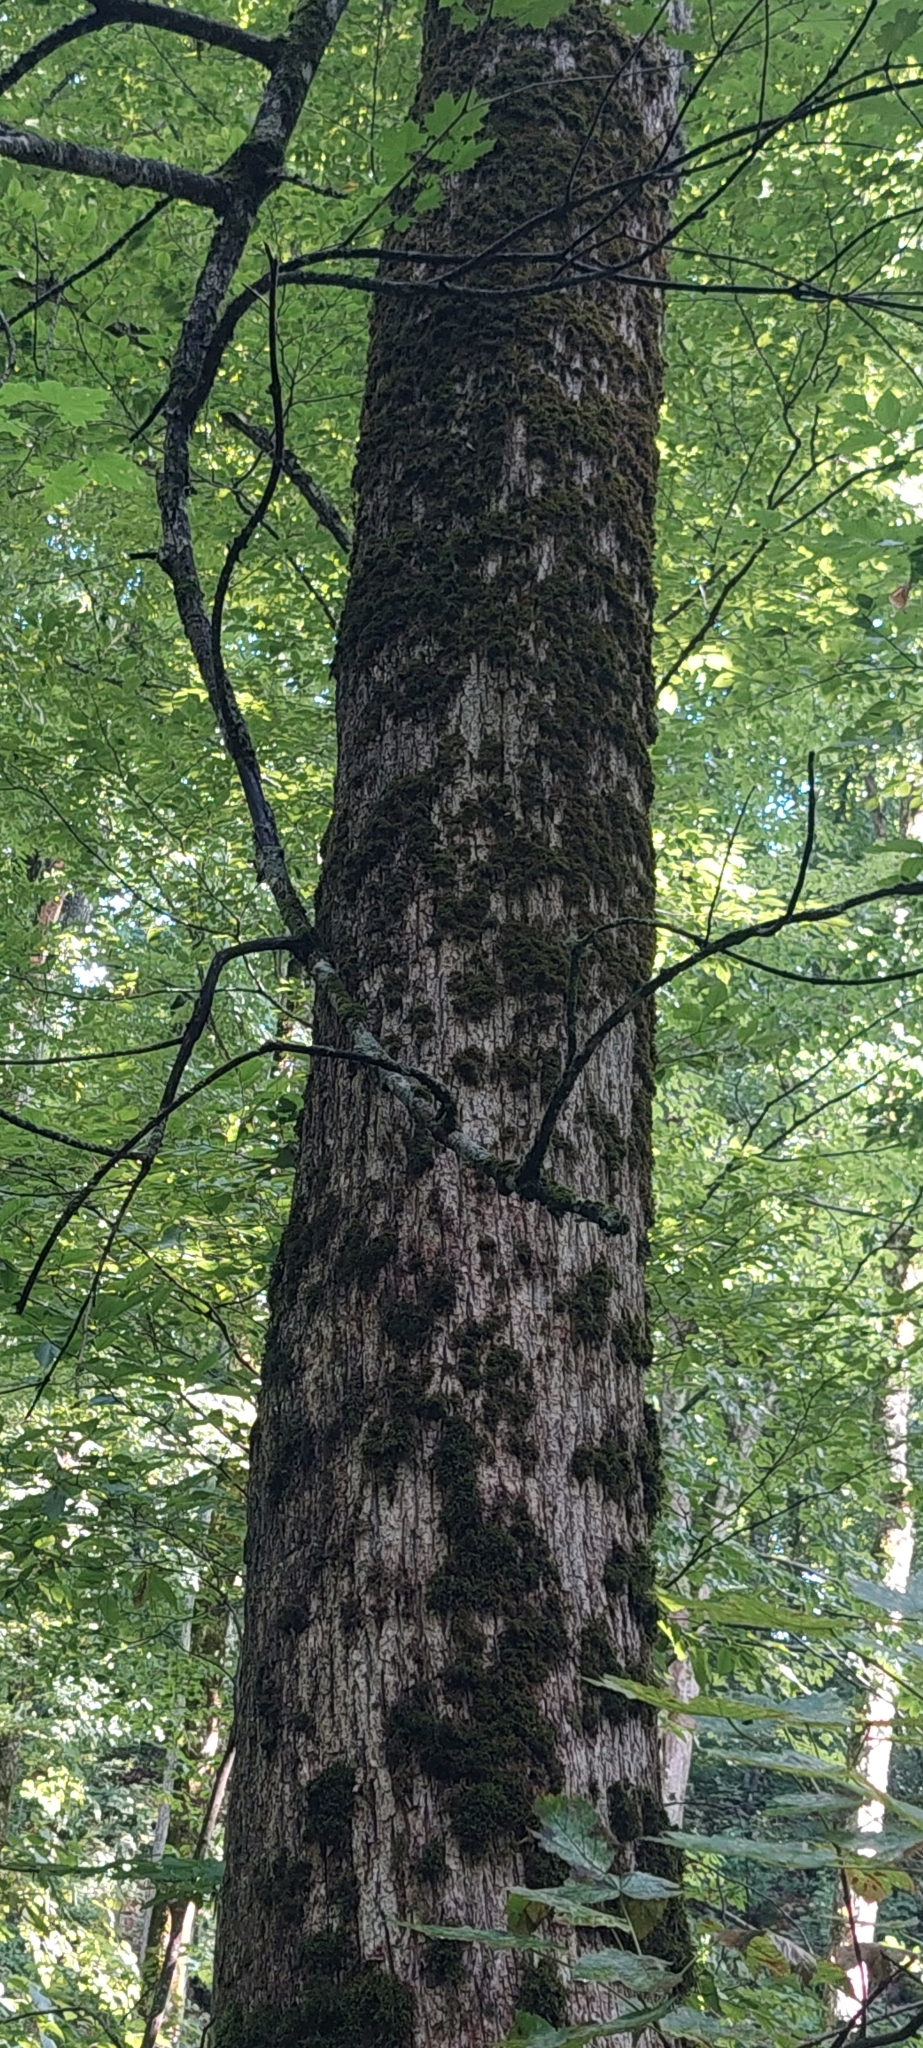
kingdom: Plantae
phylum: Tracheophyta
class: Magnoliopsida
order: Sapindales
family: Sapindaceae
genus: Acer
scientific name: Acer platanoides
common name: Norway maple
